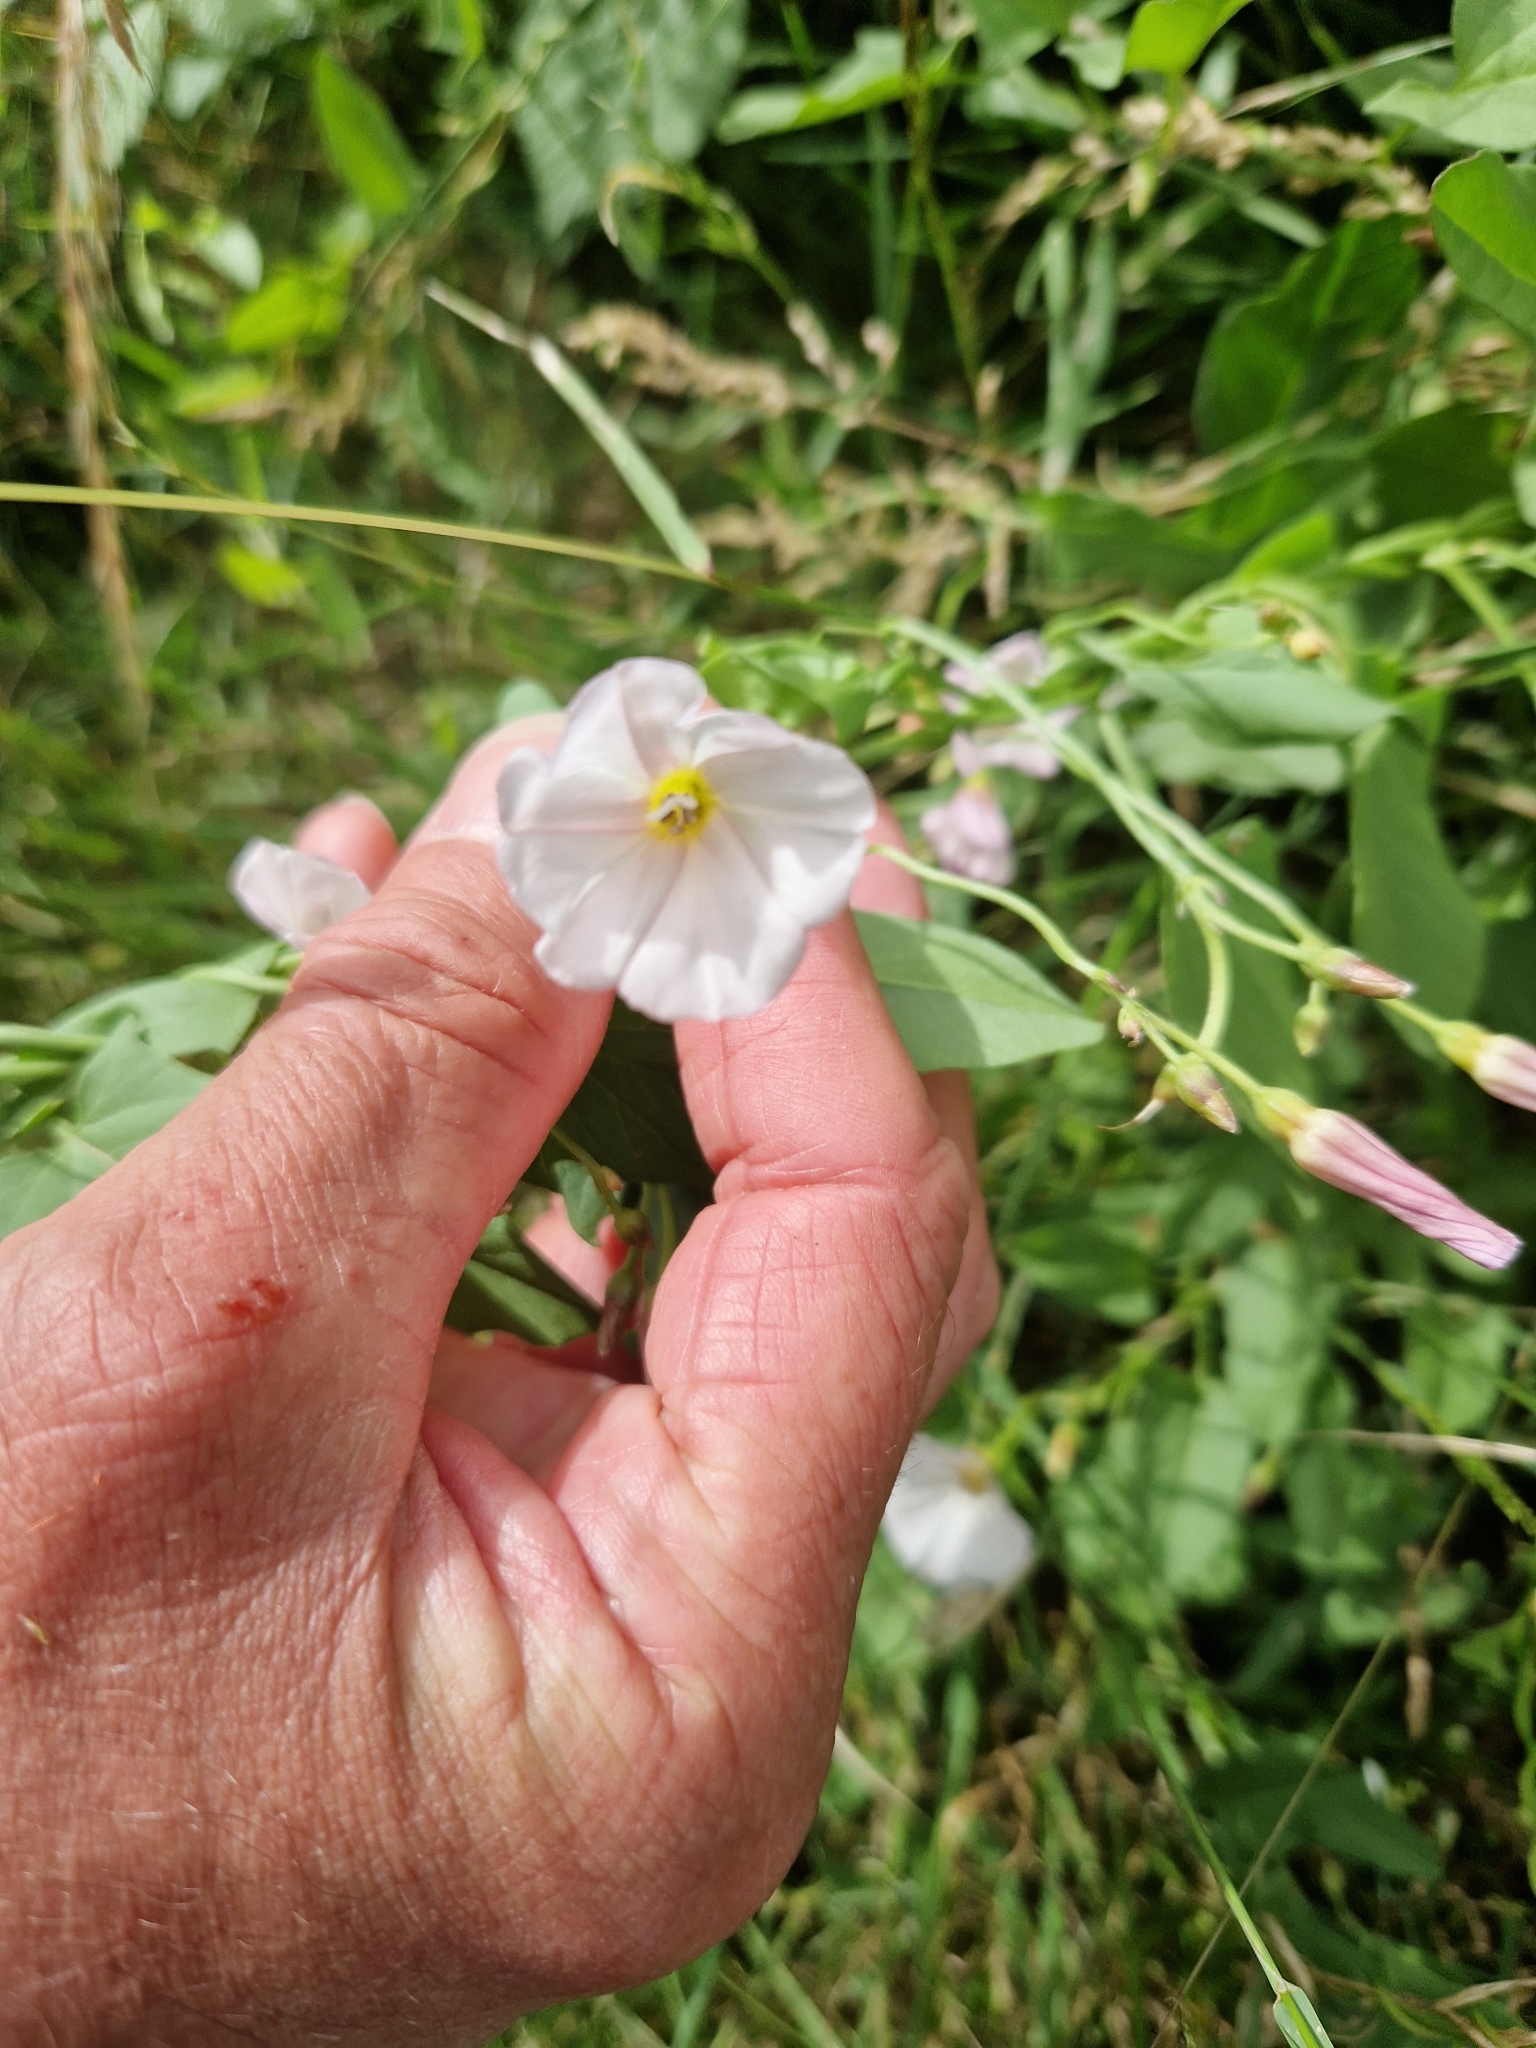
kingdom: Plantae
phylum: Tracheophyta
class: Magnoliopsida
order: Solanales
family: Convolvulaceae
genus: Convolvulus
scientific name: Convolvulus arvensis
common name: Field bindweed
